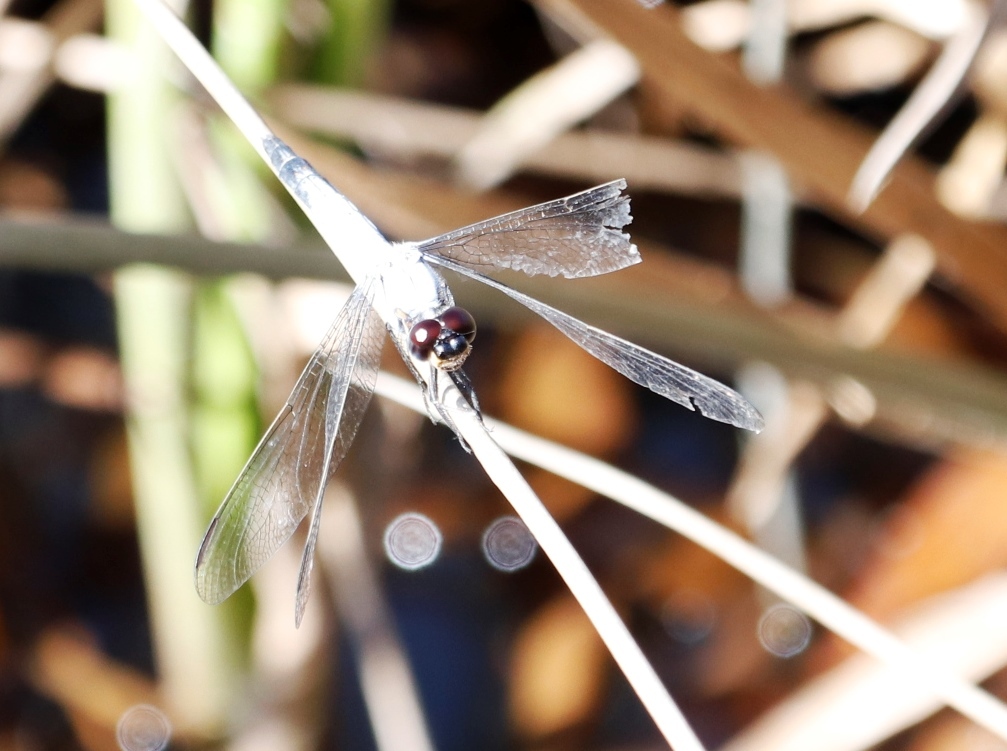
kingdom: Animalia
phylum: Arthropoda
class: Insecta
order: Odonata
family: Libellulidae
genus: Nesciothemis
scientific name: Nesciothemis farinosa
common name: Eastern blacktail
